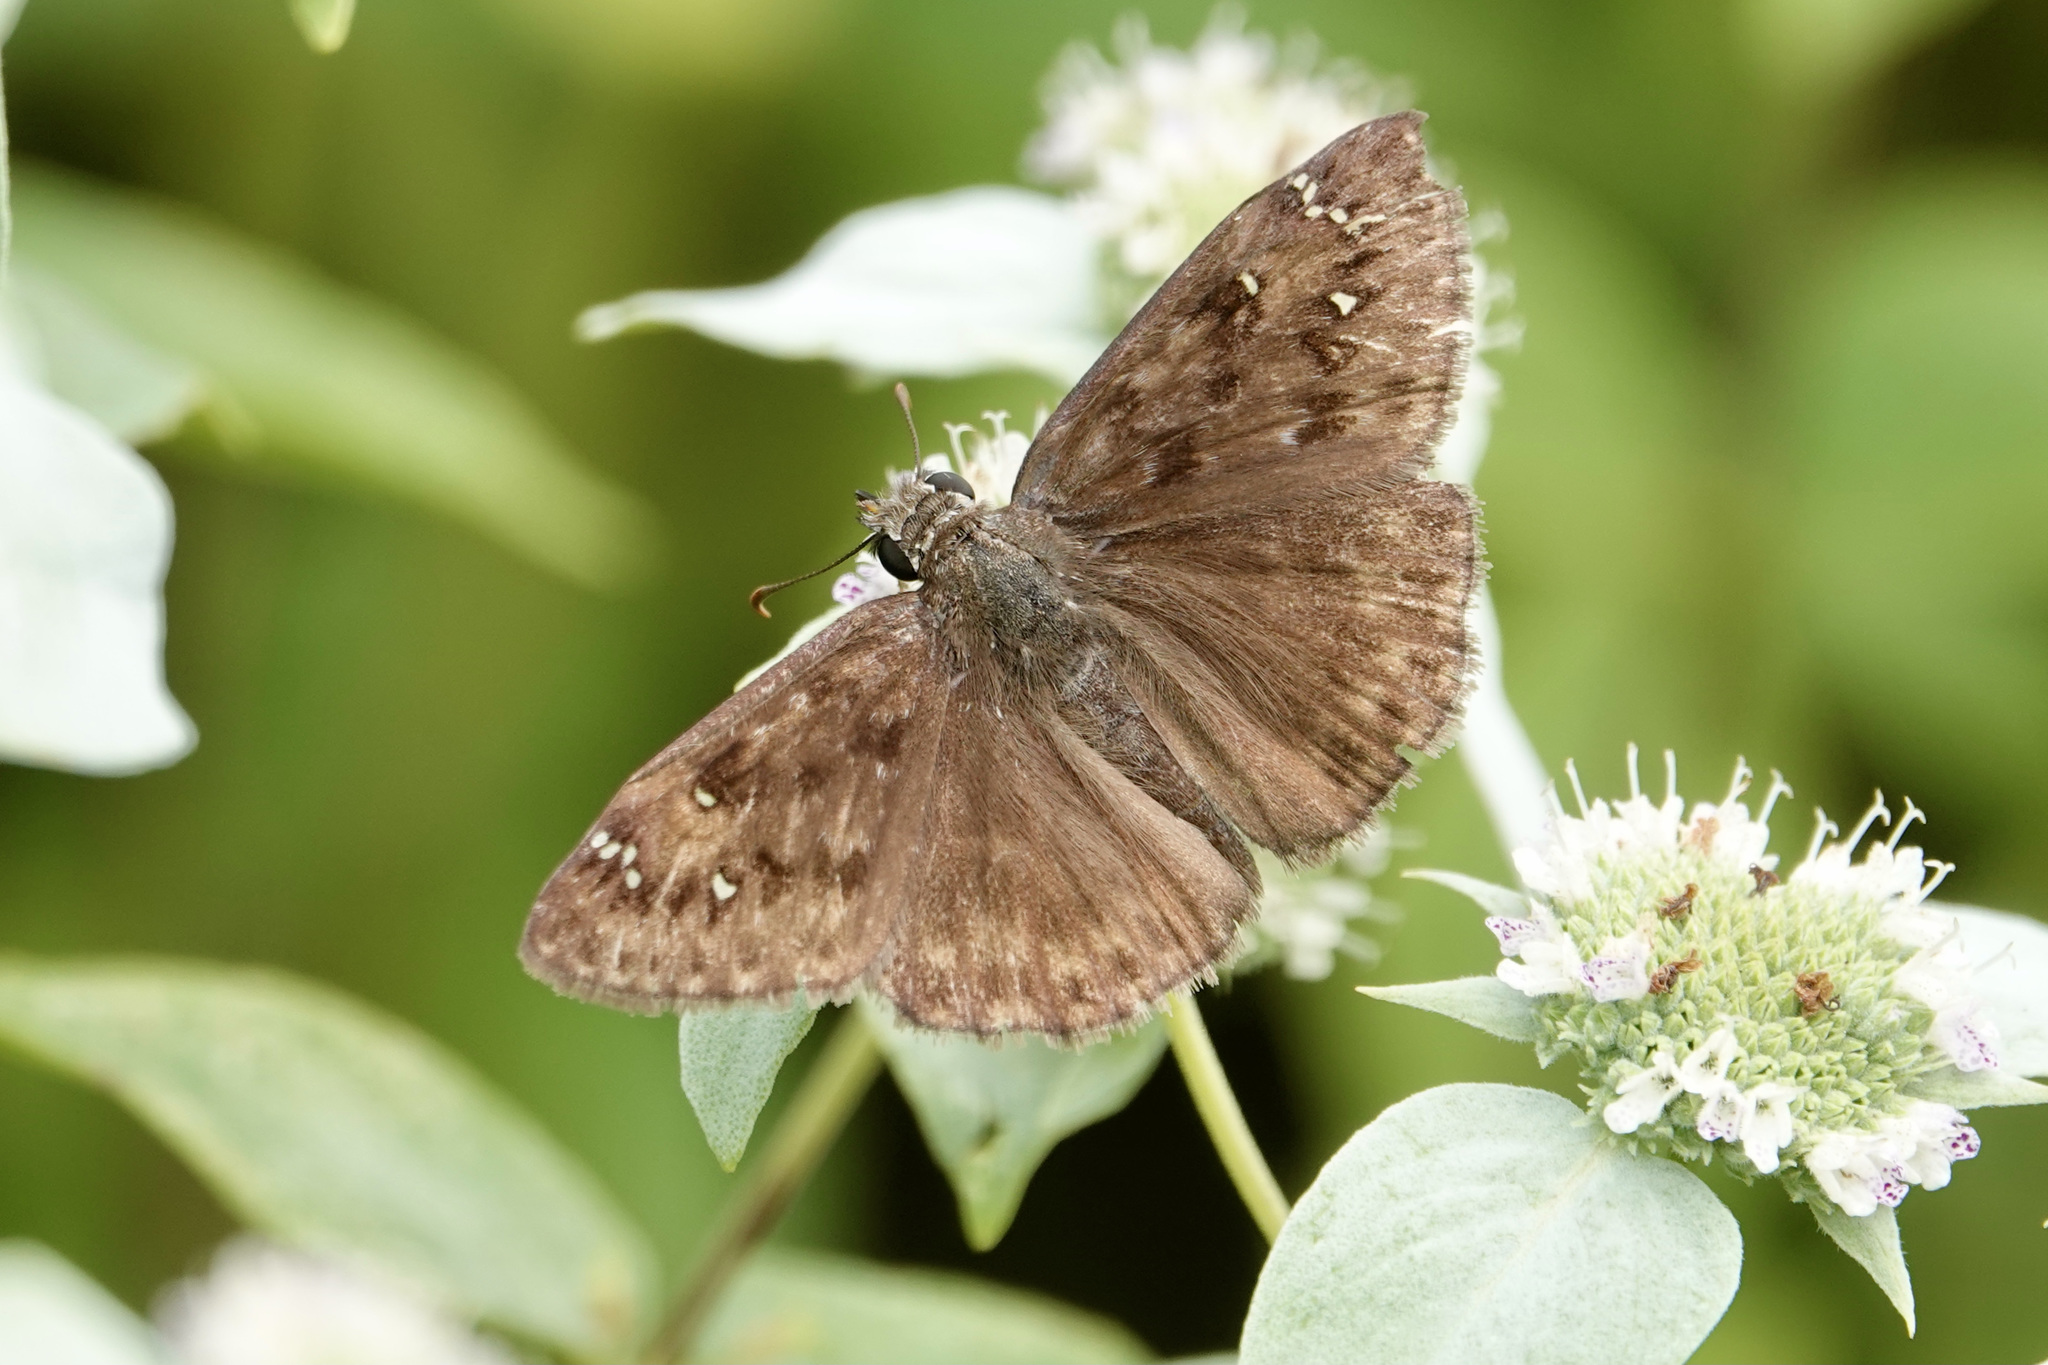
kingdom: Animalia
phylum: Arthropoda
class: Insecta
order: Lepidoptera
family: Hesperiidae
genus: Erynnis
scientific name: Erynnis horatius
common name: Horace's duskywing
